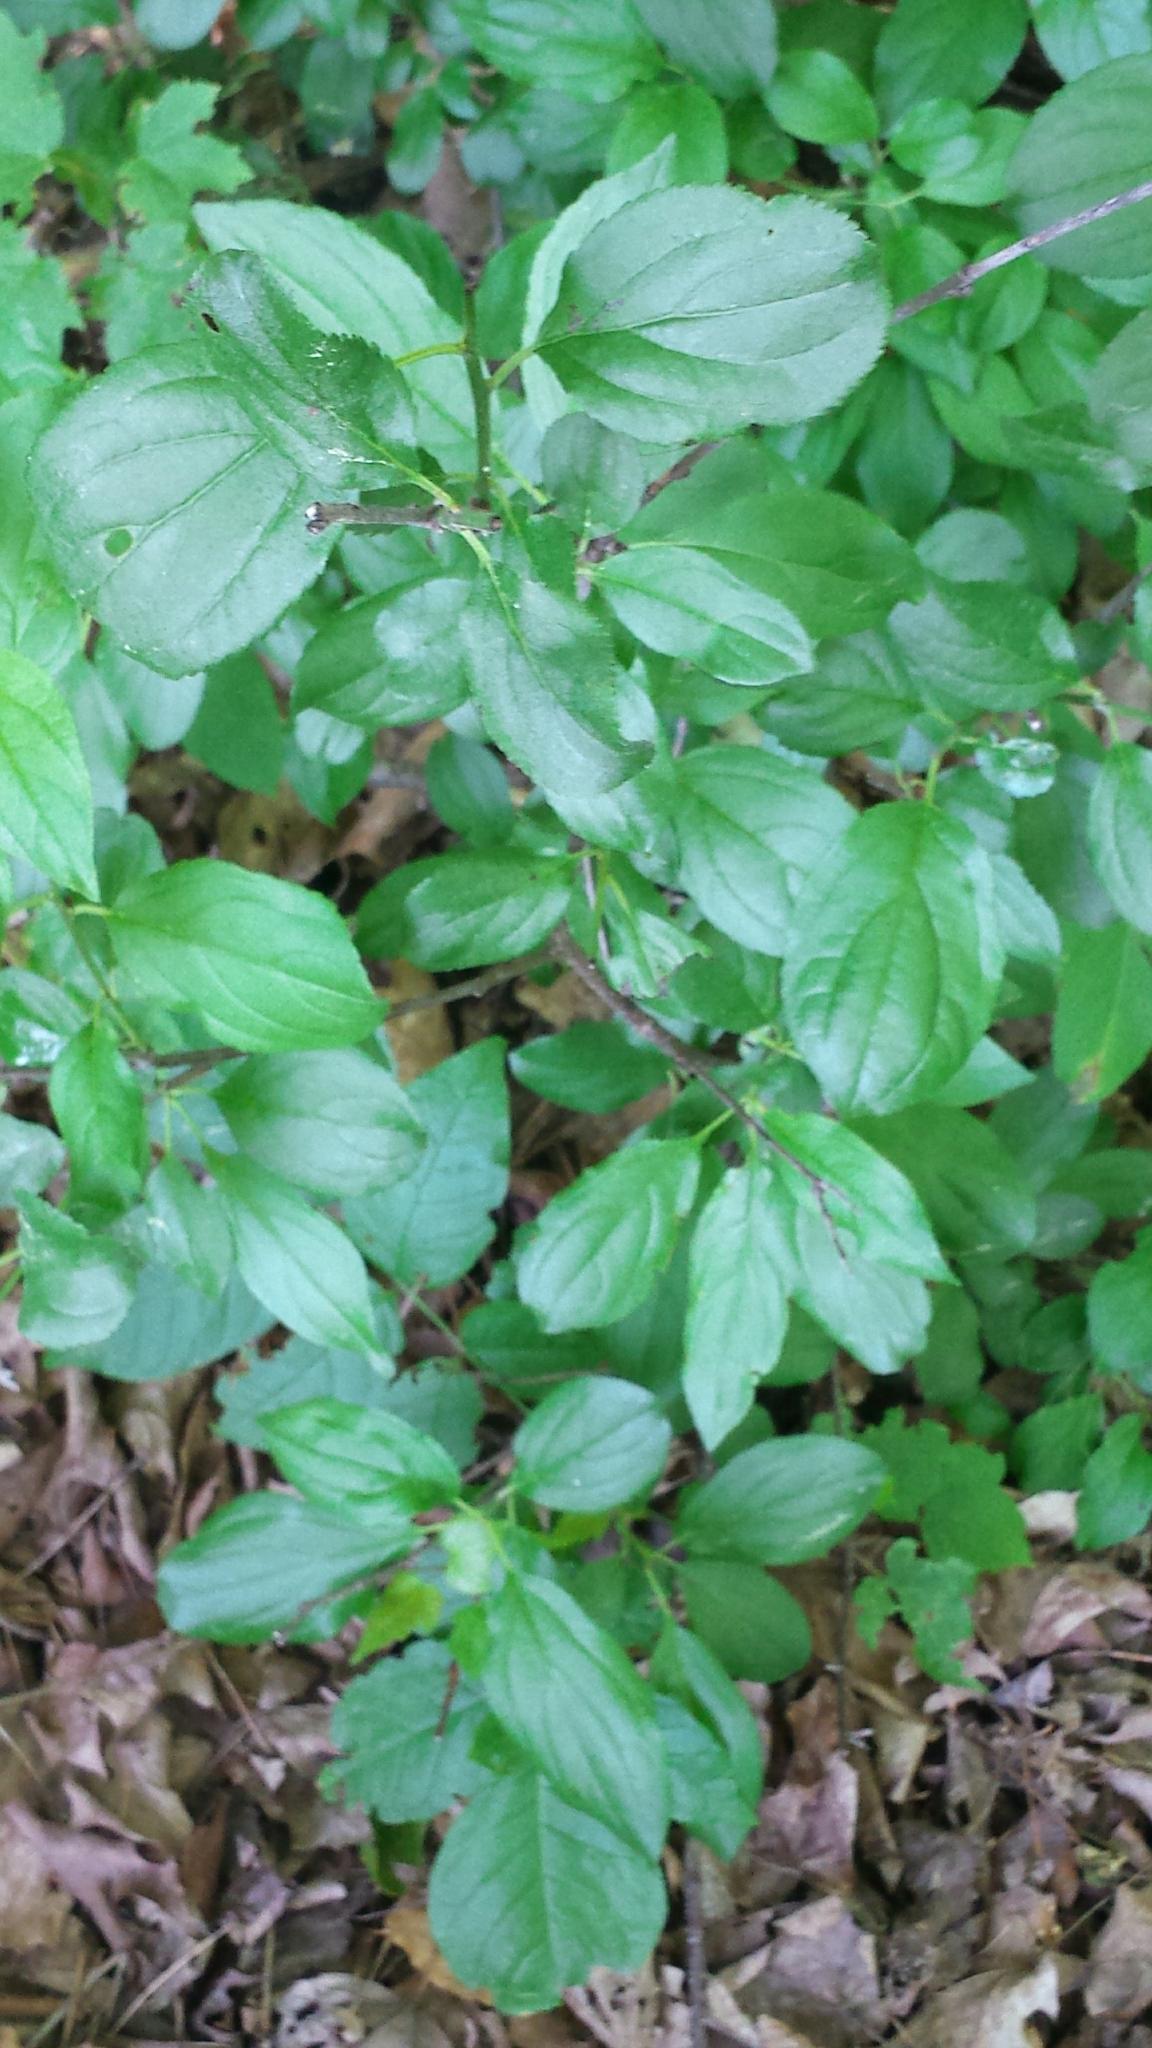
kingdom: Plantae
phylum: Tracheophyta
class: Magnoliopsida
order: Rosales
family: Rhamnaceae
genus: Rhamnus
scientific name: Rhamnus cathartica
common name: Common buckthorn
